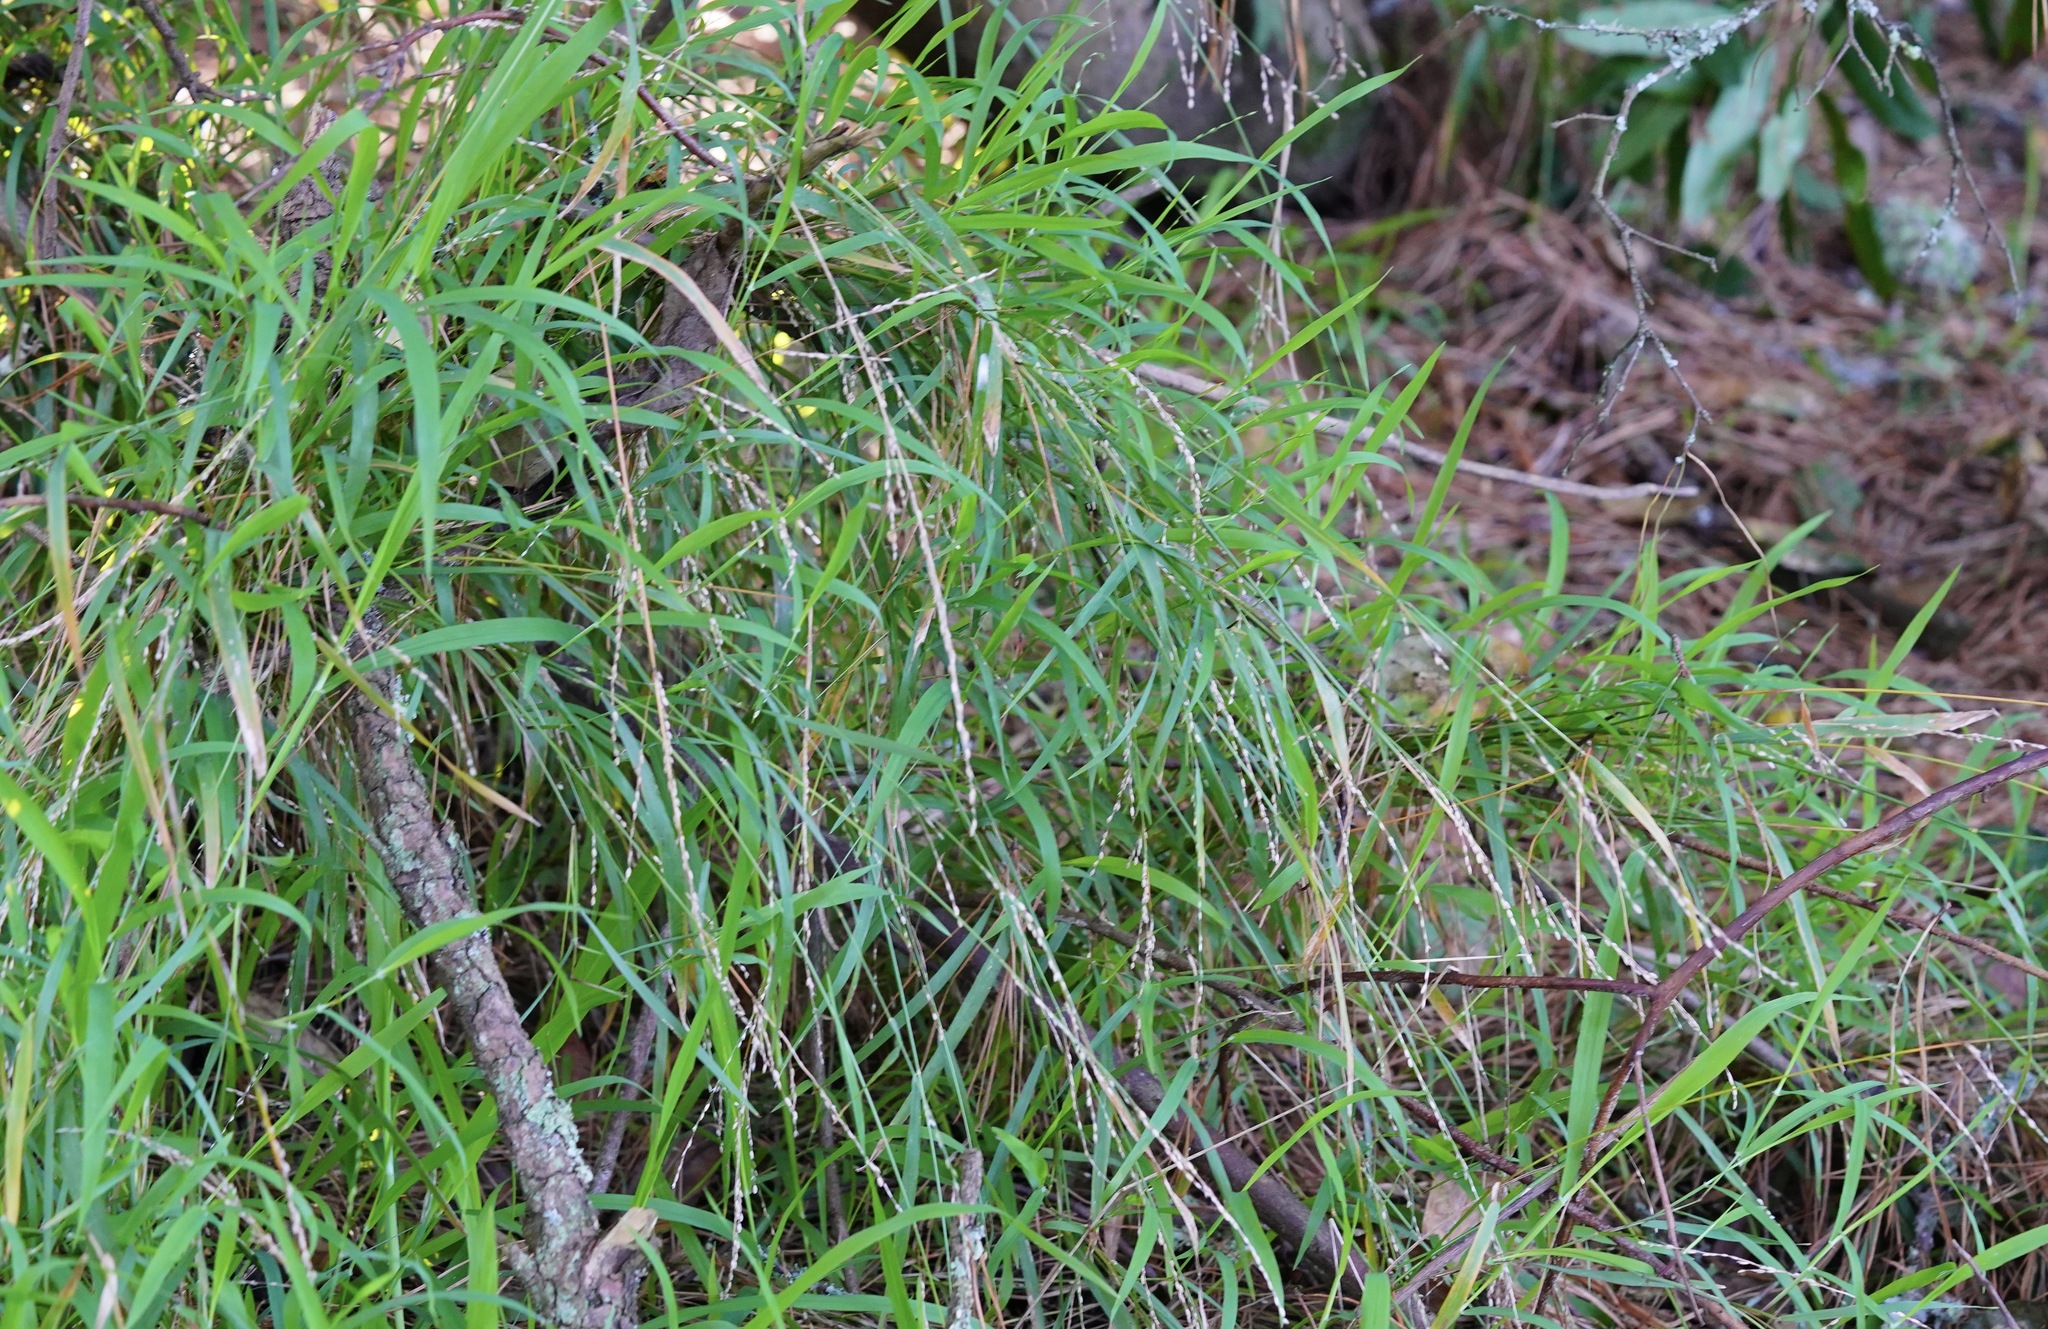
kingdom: Plantae
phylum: Tracheophyta
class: Liliopsida
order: Poales
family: Poaceae
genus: Ehrharta
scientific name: Ehrharta erecta
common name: Panic veldtgrass
